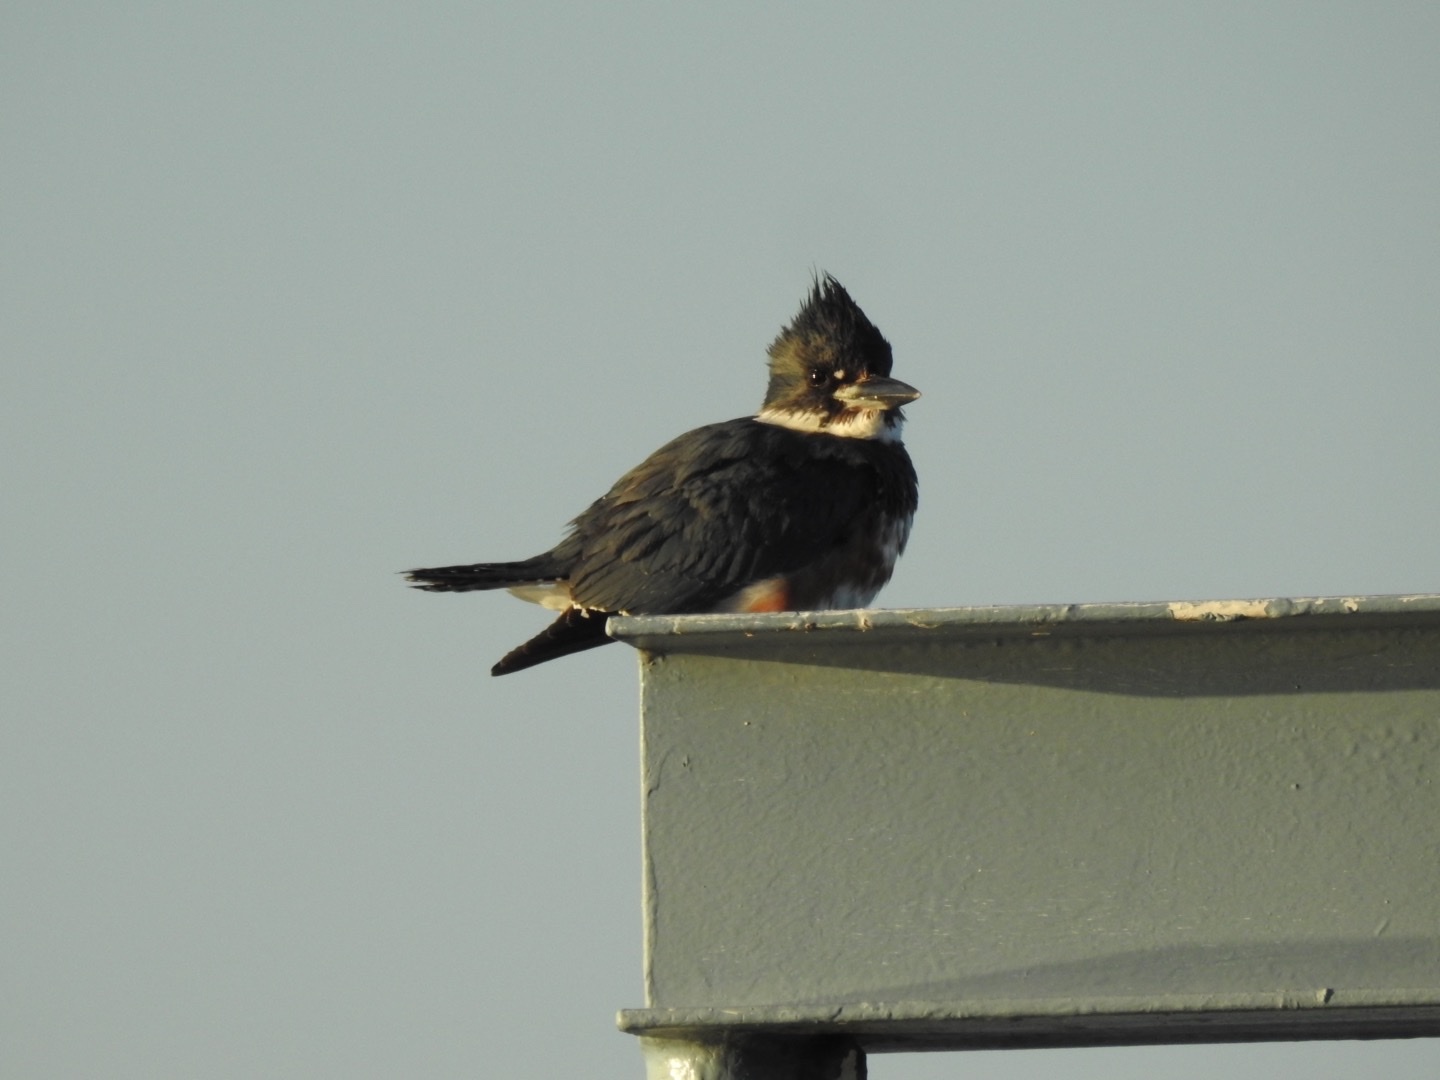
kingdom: Animalia
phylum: Chordata
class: Aves
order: Coraciiformes
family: Alcedinidae
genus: Megaceryle
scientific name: Megaceryle alcyon
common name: Belted kingfisher
